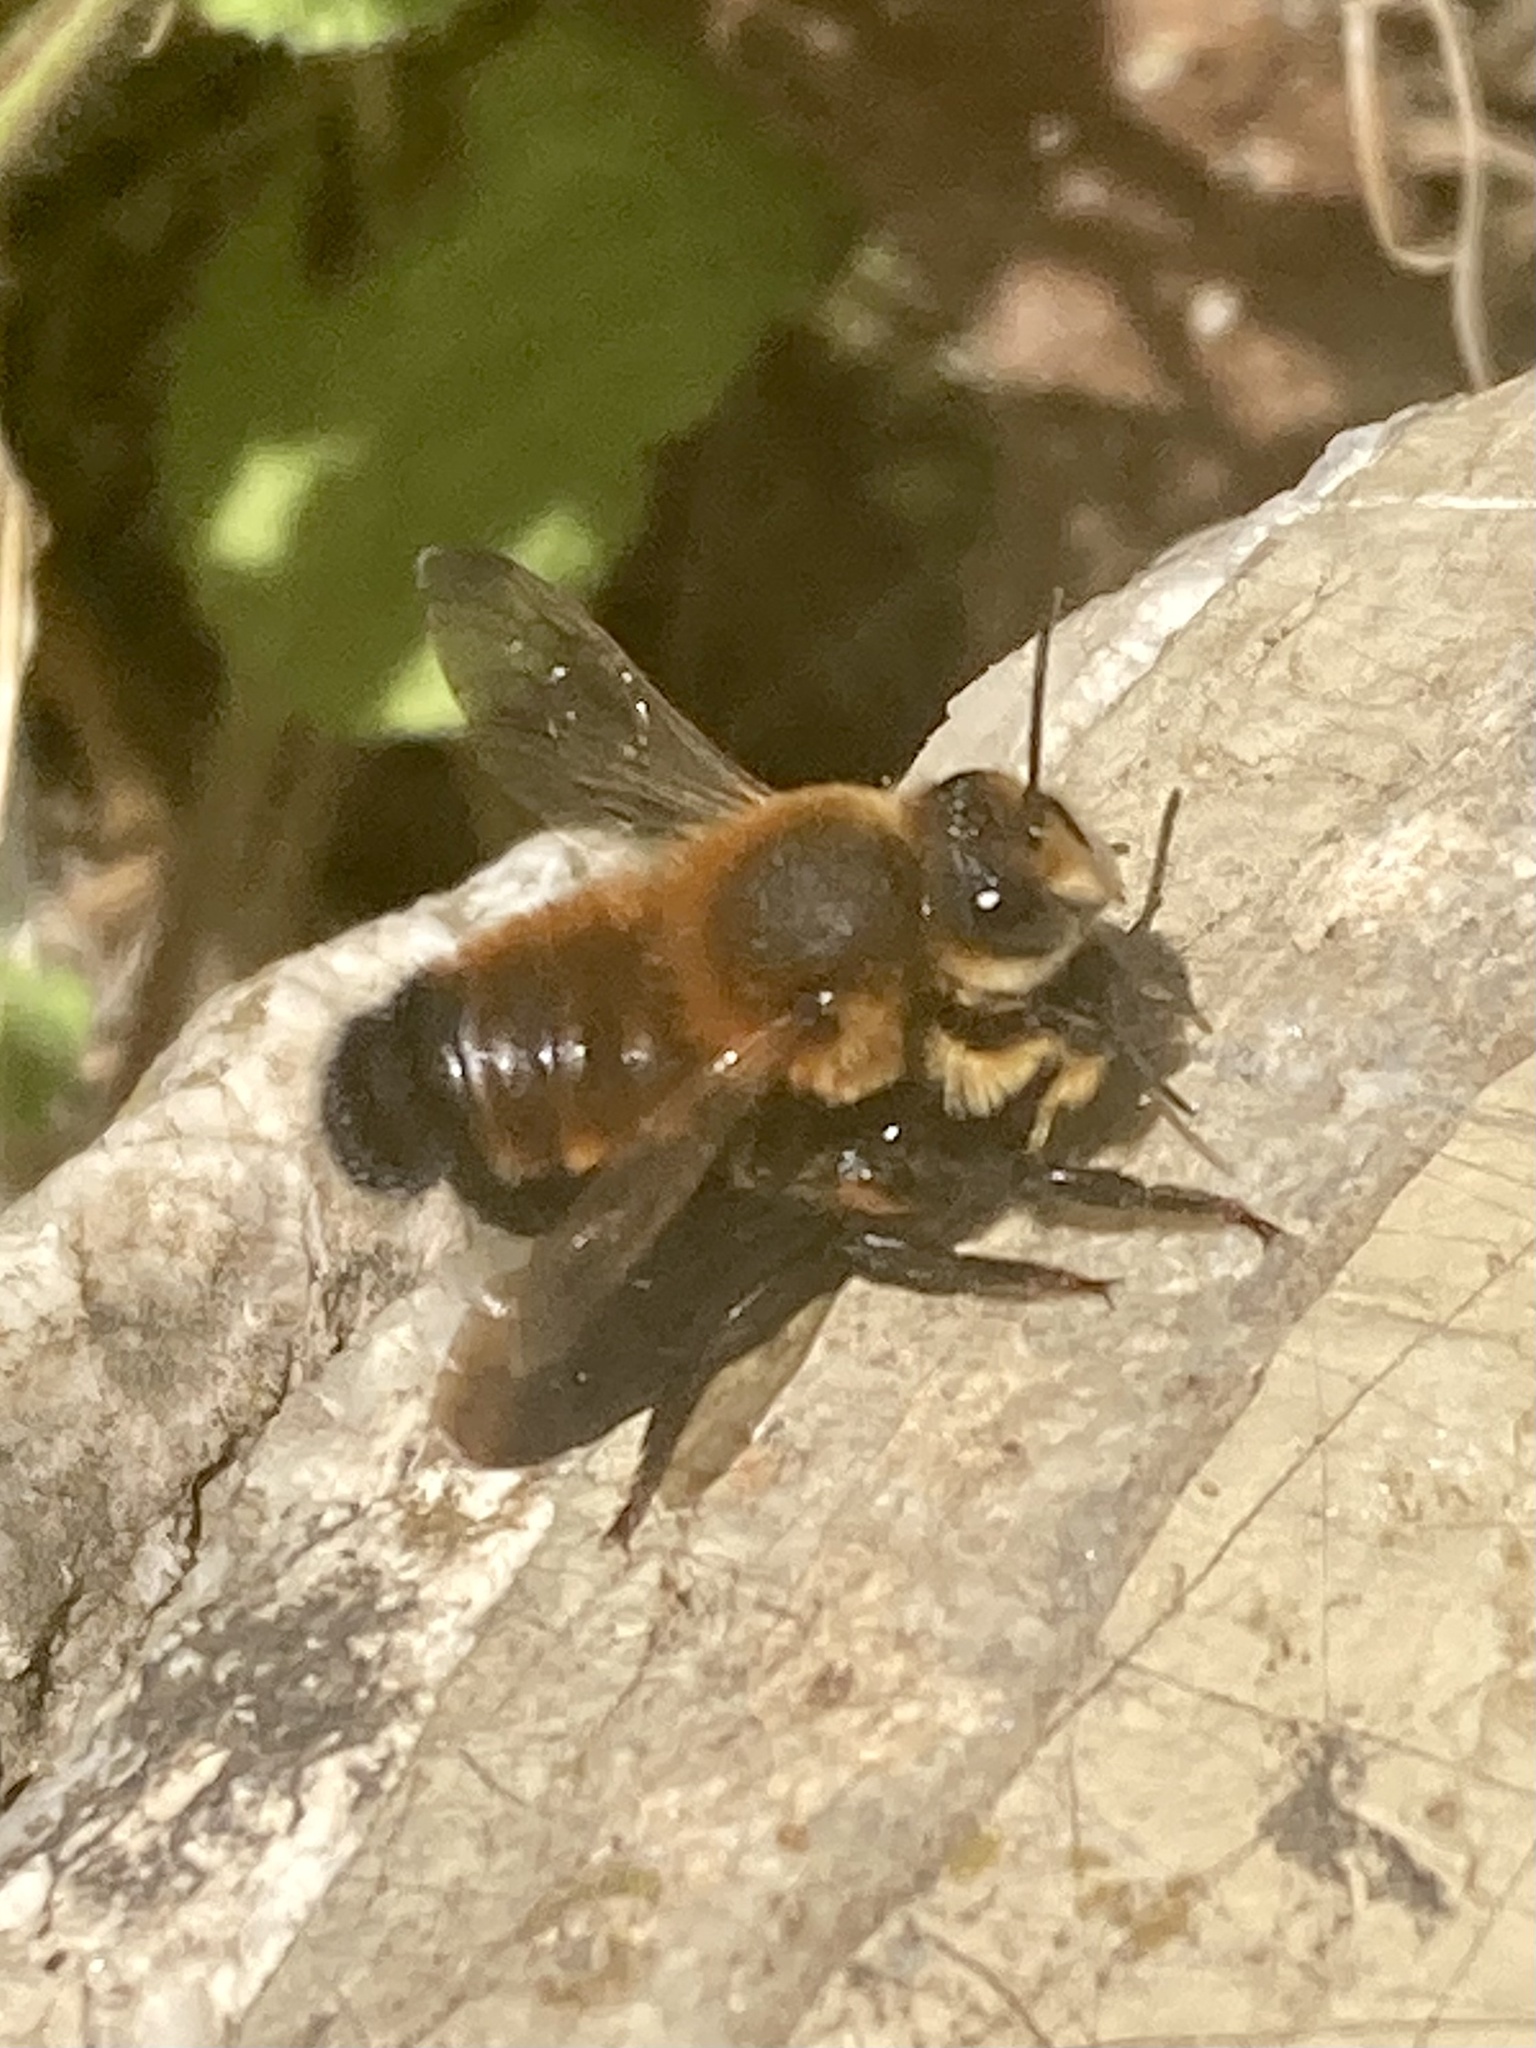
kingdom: Animalia
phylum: Arthropoda
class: Insecta
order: Hymenoptera
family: Megachilidae
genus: Megachile
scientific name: Megachile parietina
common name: Black mud bee
